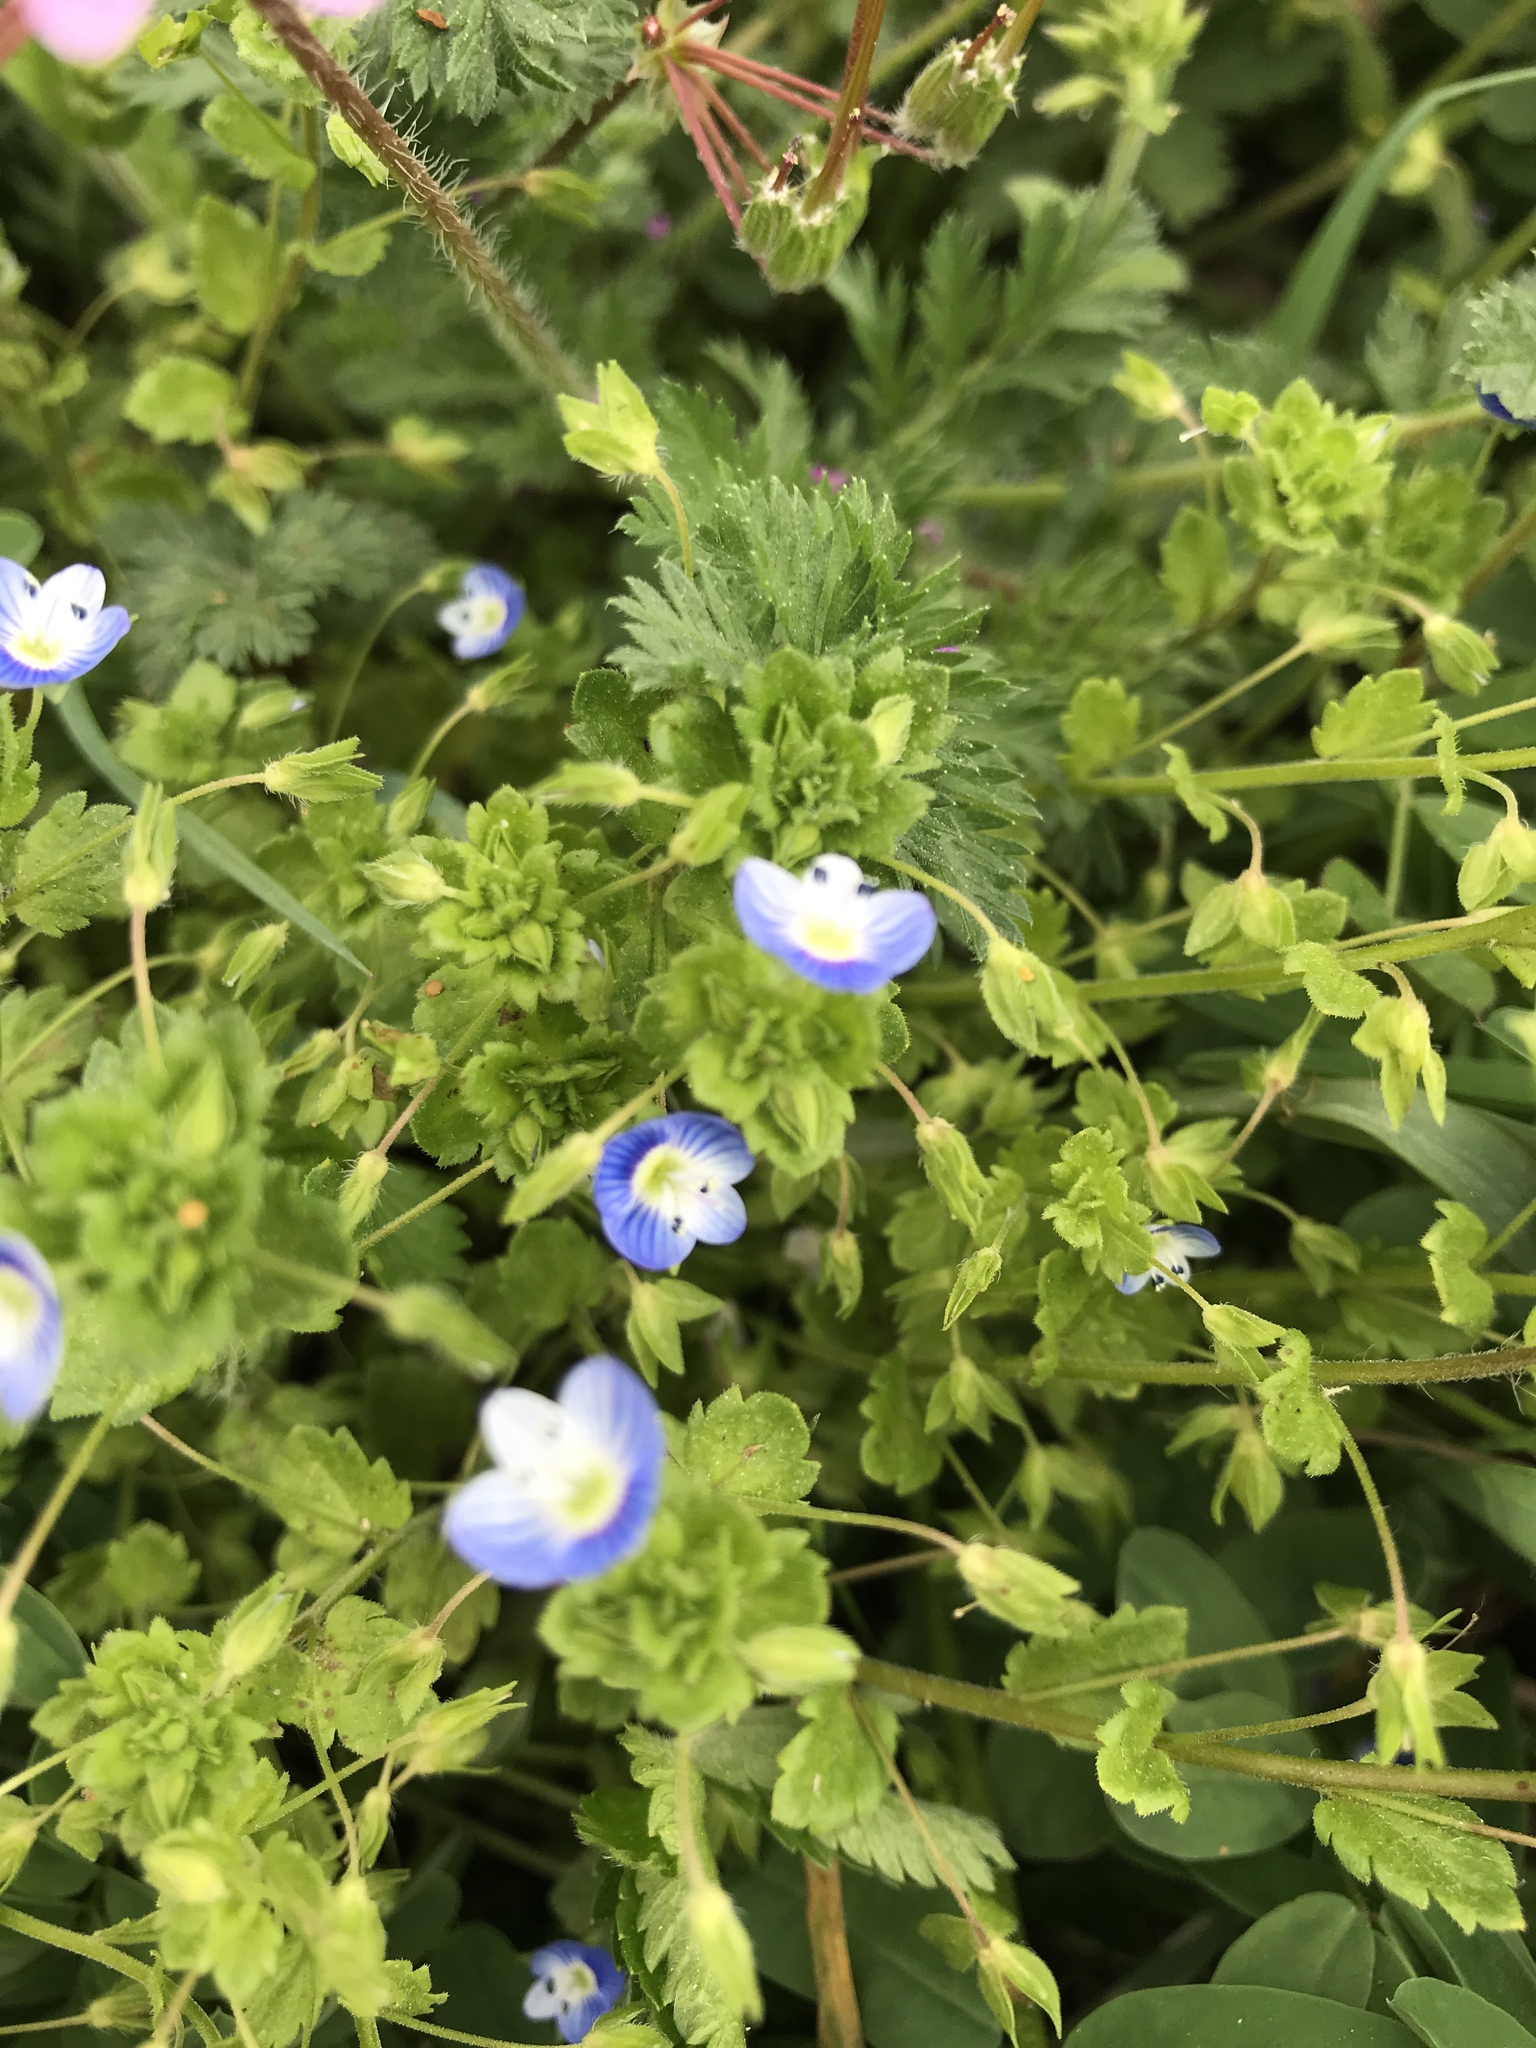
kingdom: Plantae
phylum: Tracheophyta
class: Magnoliopsida
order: Lamiales
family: Plantaginaceae
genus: Veronica
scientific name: Veronica persica
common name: Common field-speedwell
